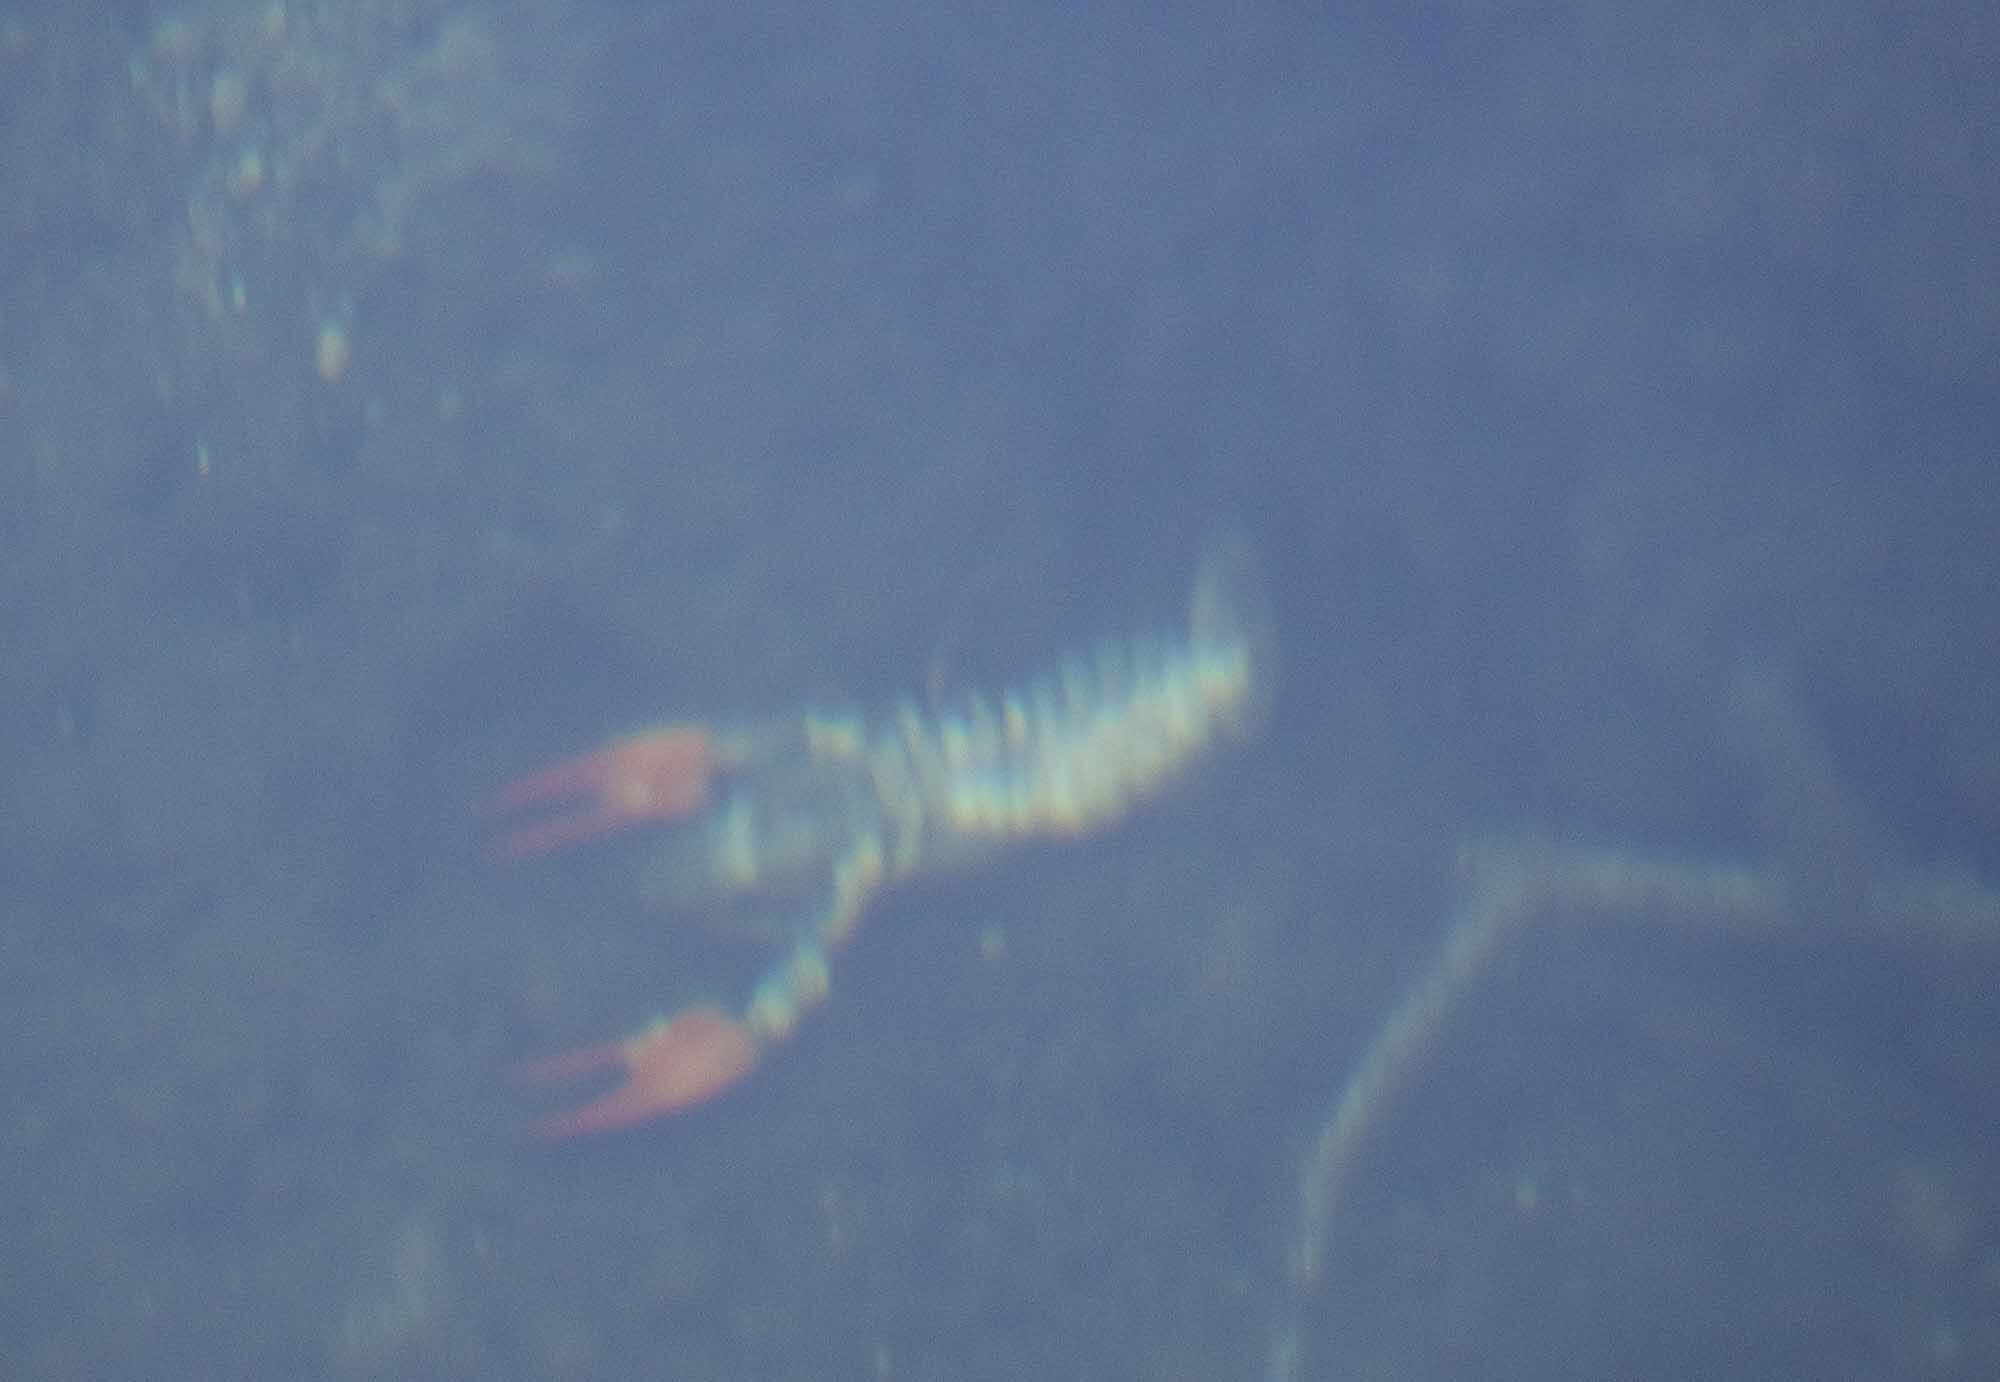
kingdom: Animalia
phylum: Arthropoda
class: Malacostraca
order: Decapoda
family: Astacidae
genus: Pacifastacus
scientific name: Pacifastacus leniusculus
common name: Signal crayfish
